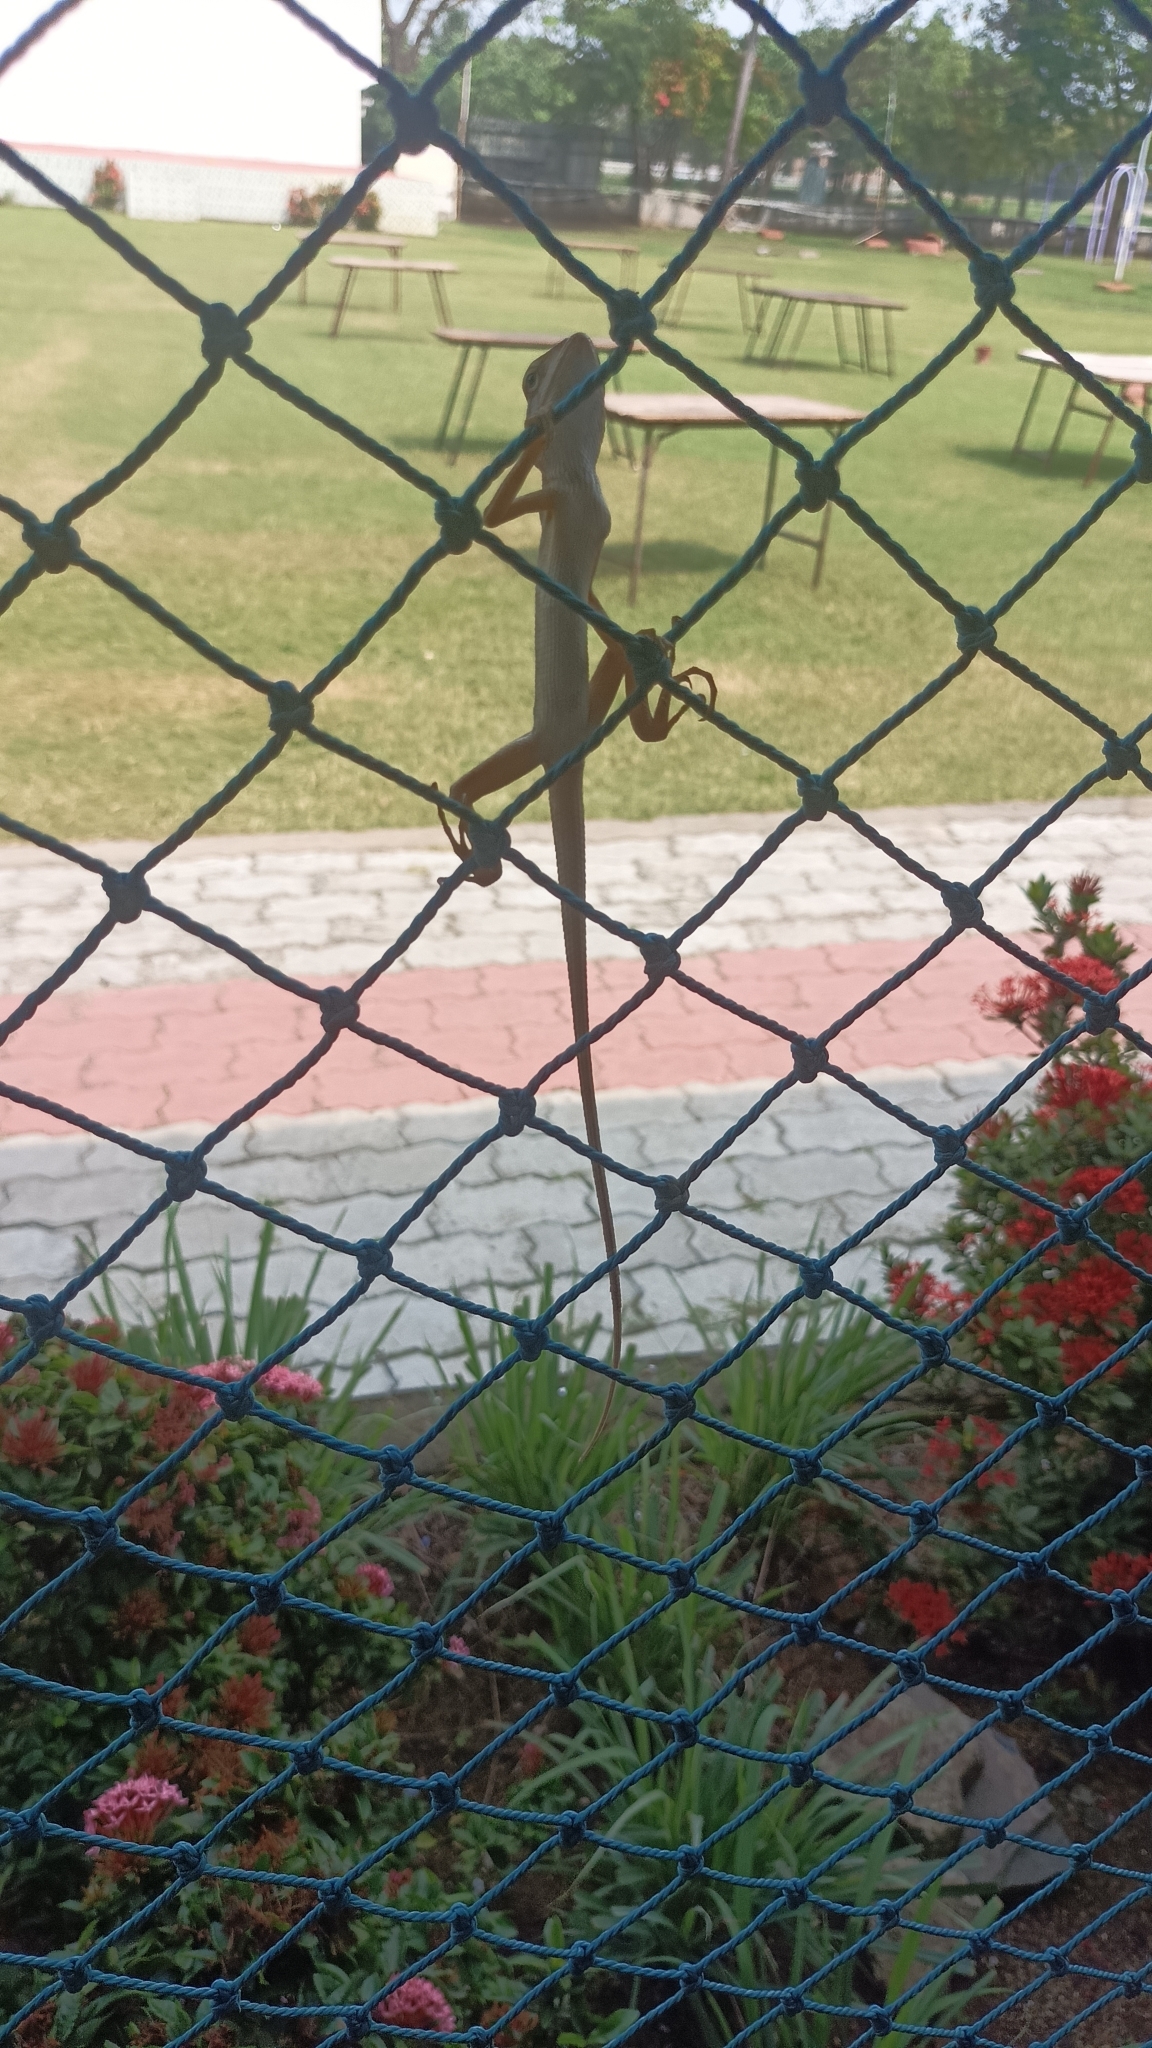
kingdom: Animalia
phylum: Chordata
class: Squamata
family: Agamidae
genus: Calotes
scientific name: Calotes versicolor
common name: Oriental garden lizard
